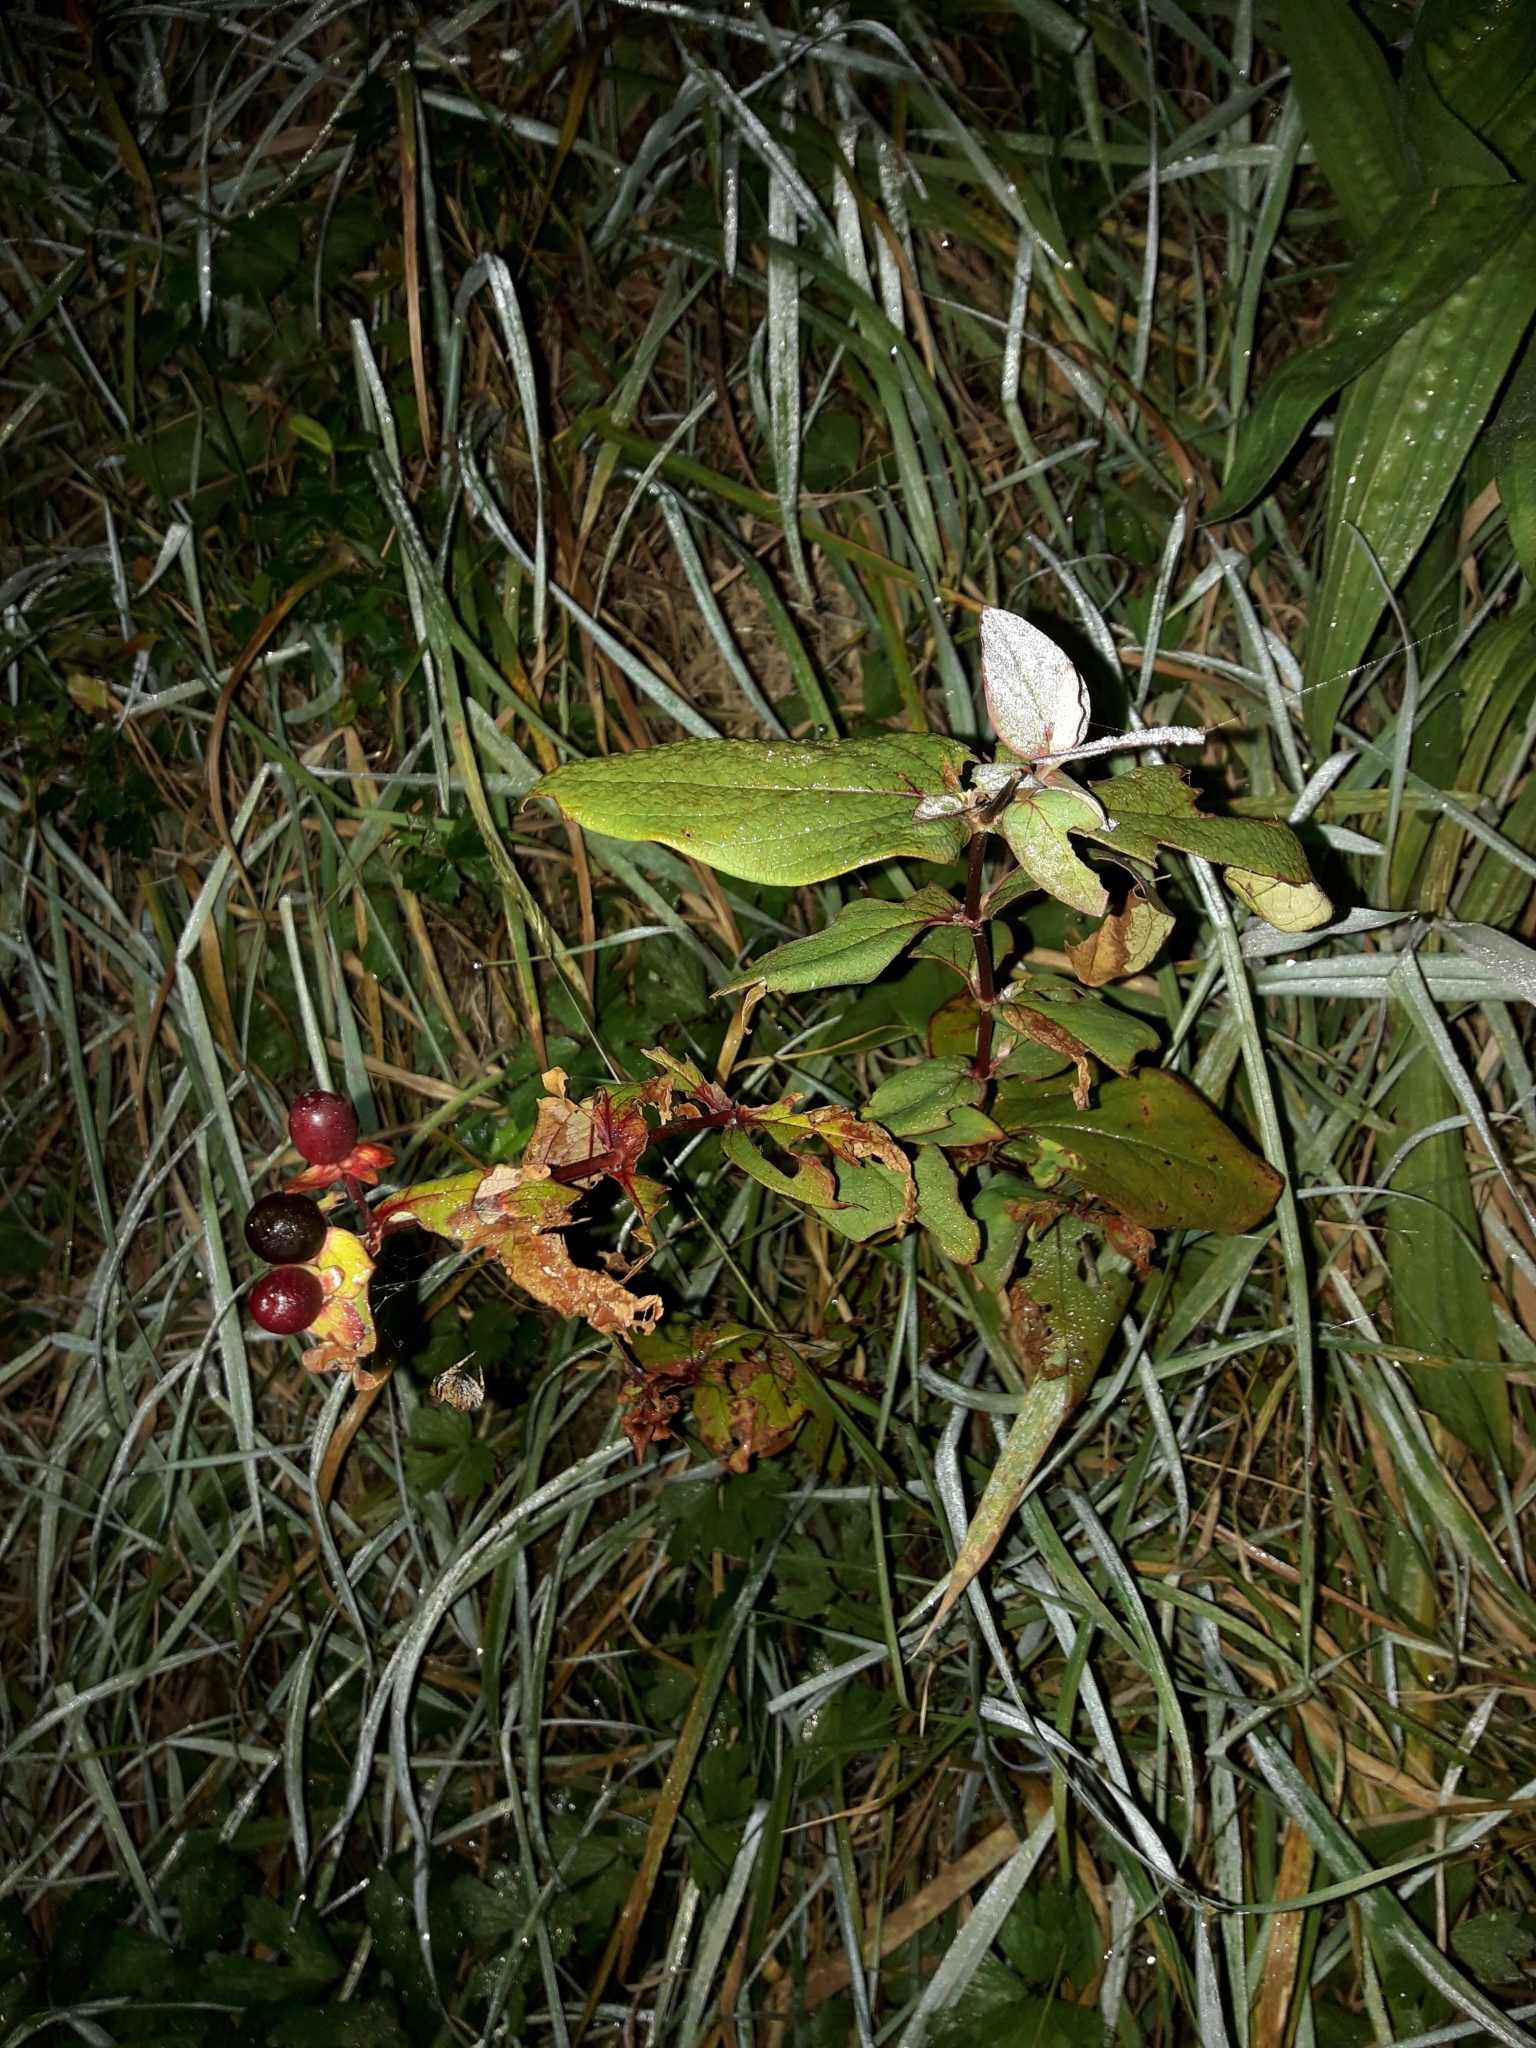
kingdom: Plantae
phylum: Tracheophyta
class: Magnoliopsida
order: Malpighiales
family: Hypericaceae
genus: Hypericum
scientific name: Hypericum androsaemum
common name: Sweet-amber
